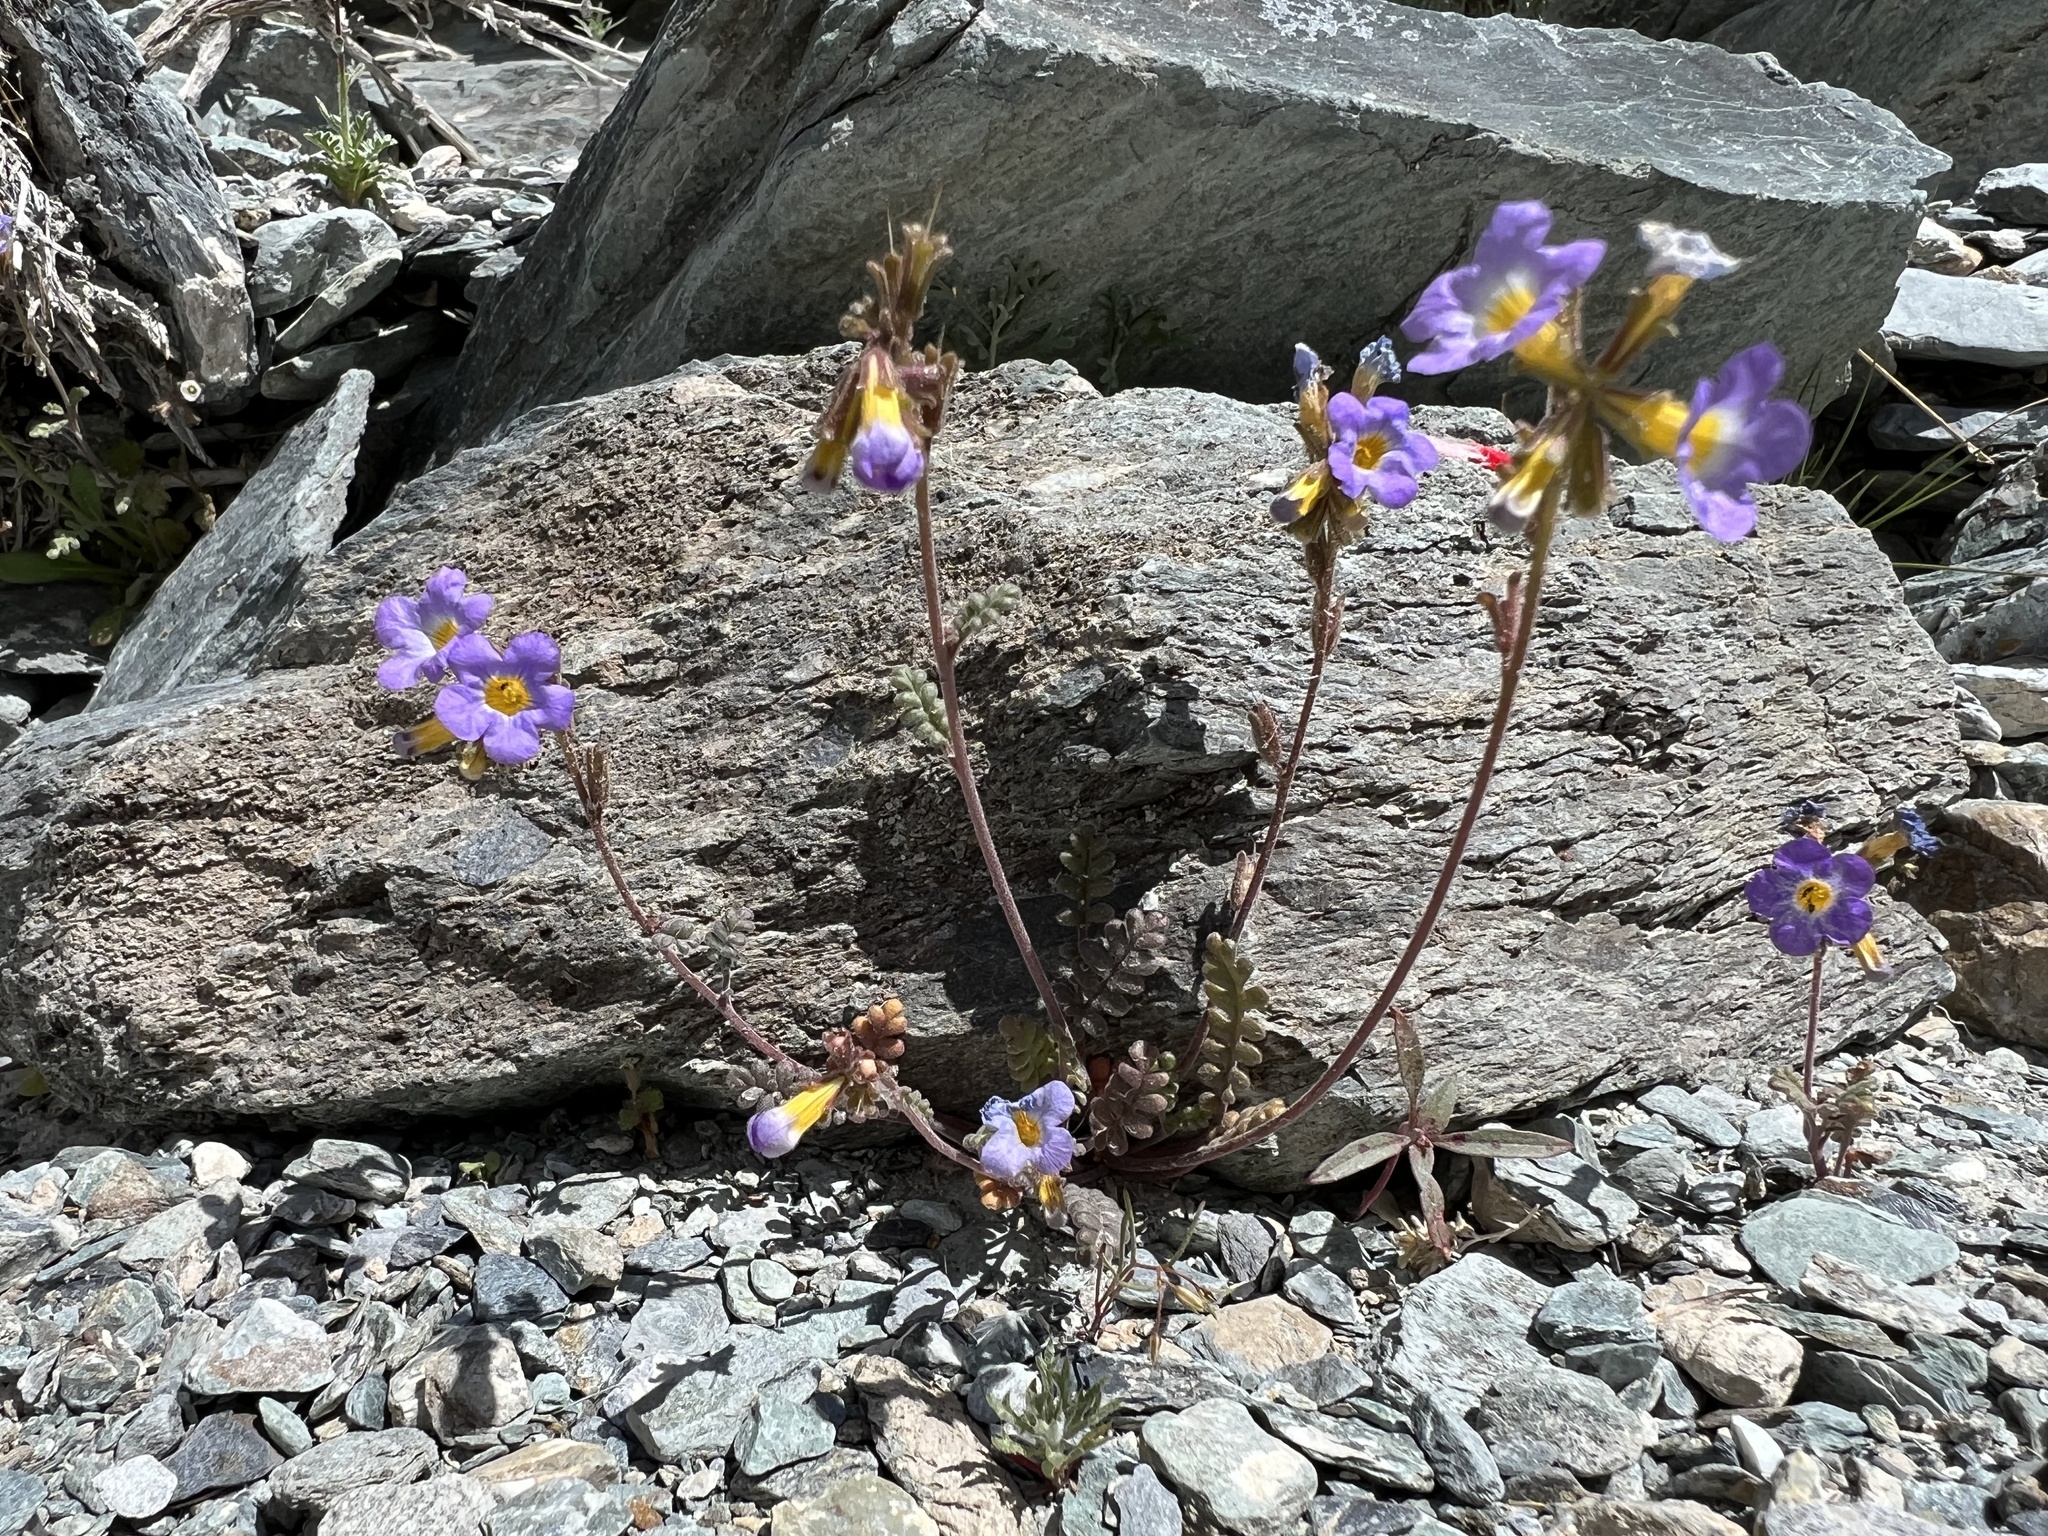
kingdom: Plantae
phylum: Tracheophyta
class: Magnoliopsida
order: Boraginales
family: Hydrophyllaceae
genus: Phacelia
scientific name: Phacelia fremontii
